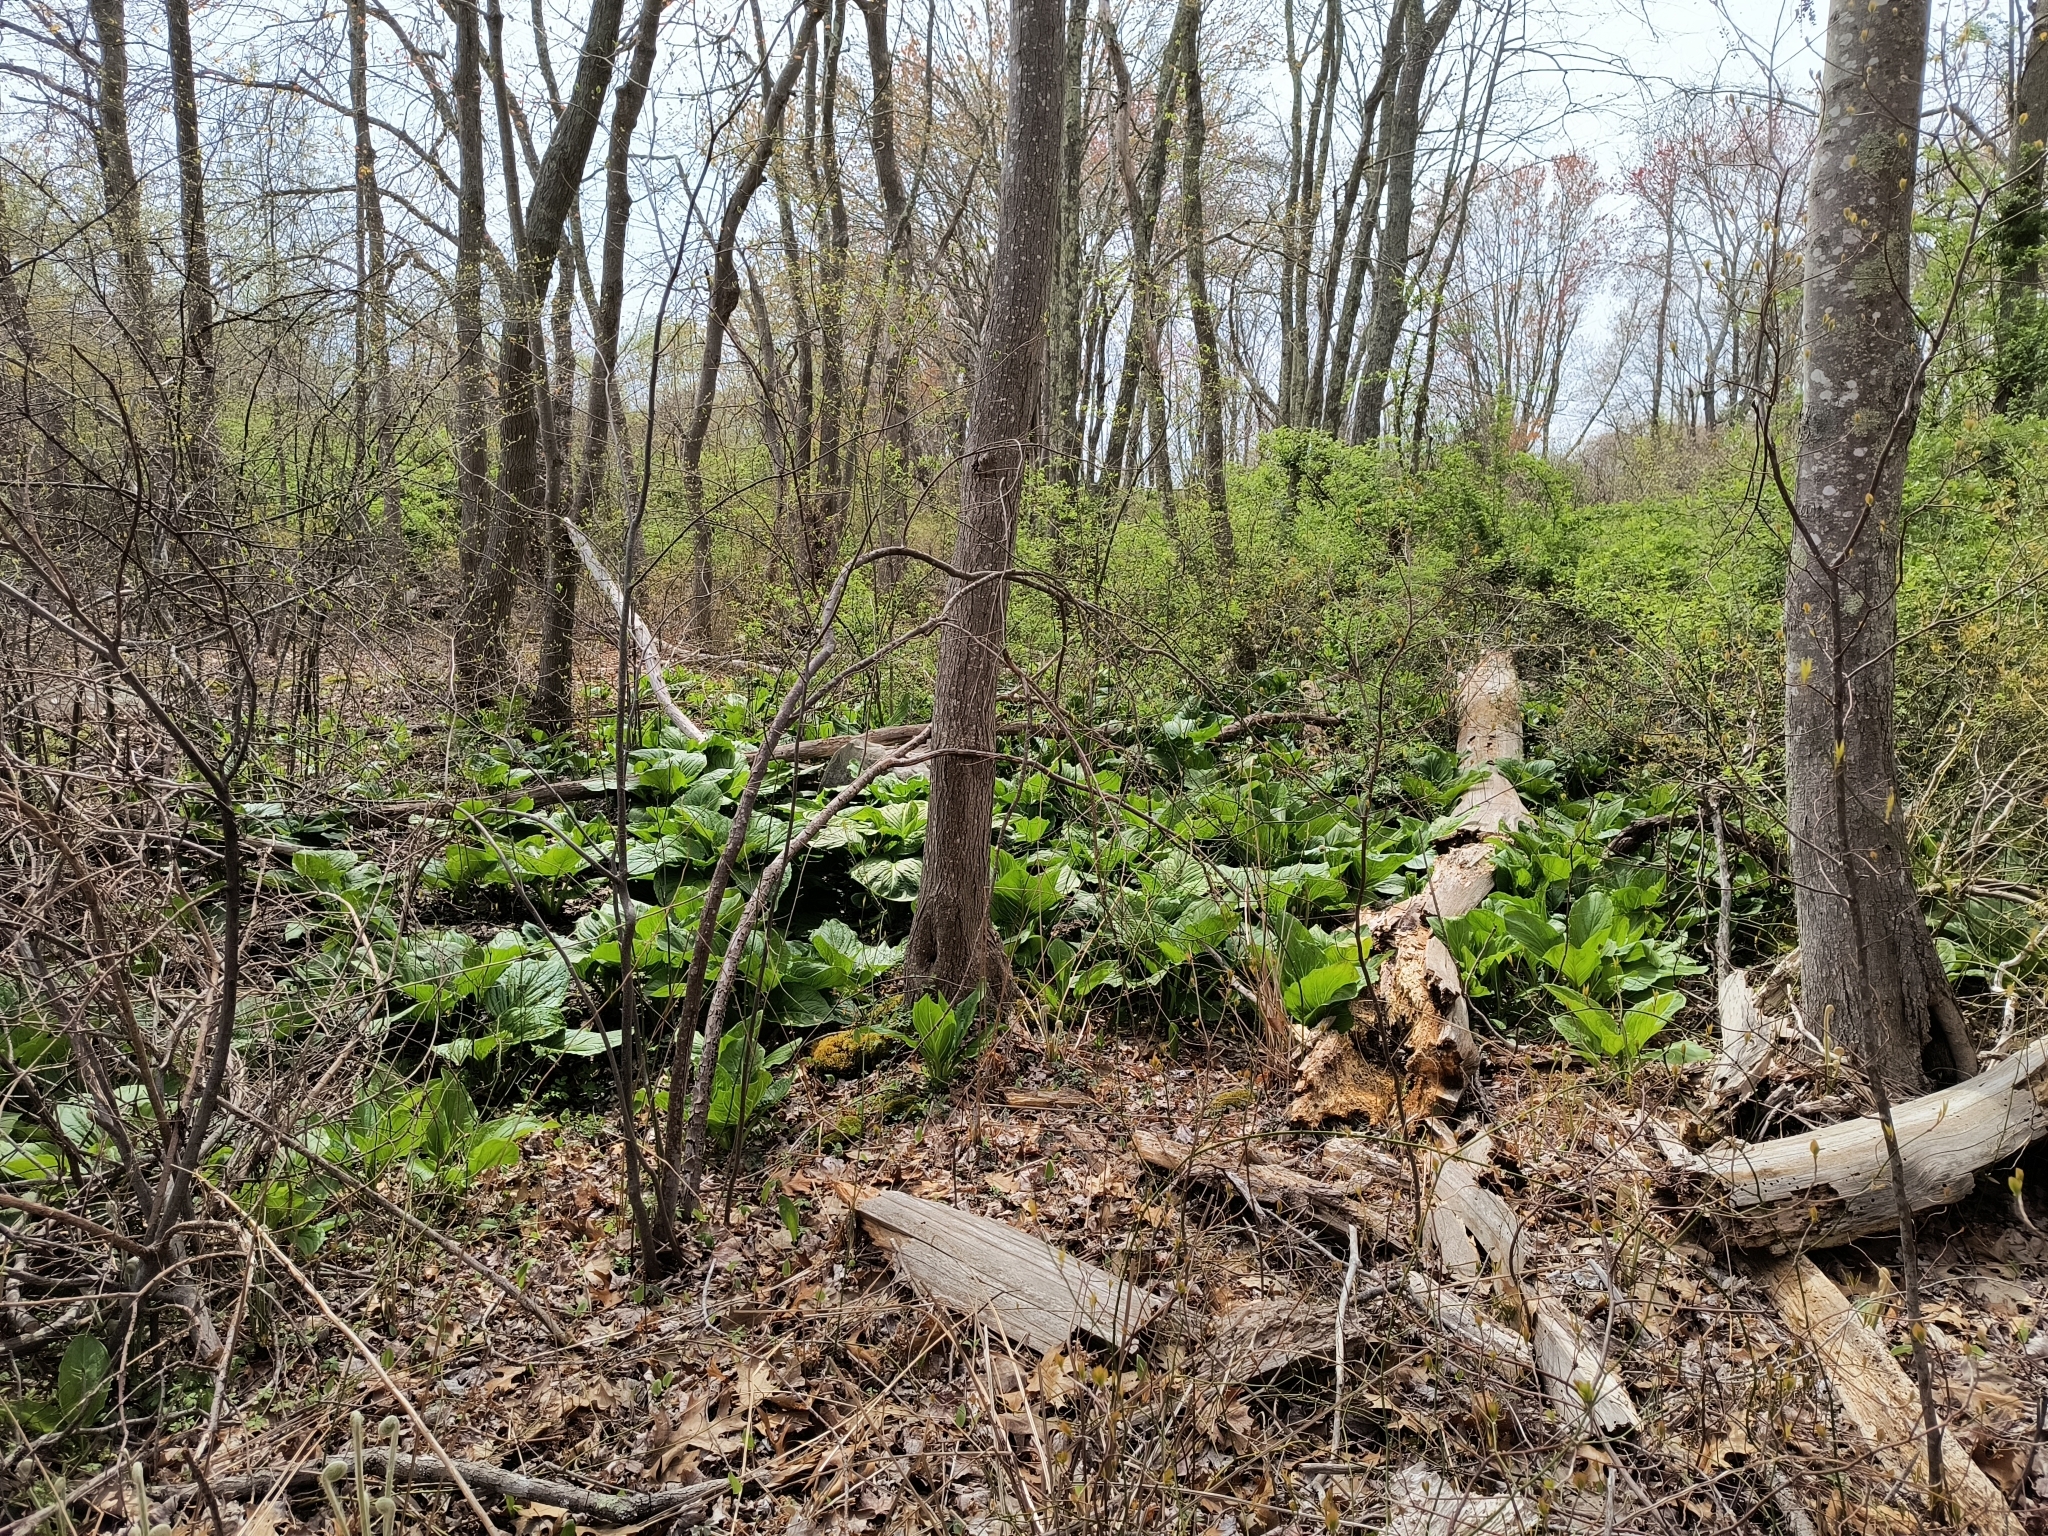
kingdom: Plantae
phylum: Tracheophyta
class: Liliopsida
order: Alismatales
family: Araceae
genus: Symplocarpus
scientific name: Symplocarpus foetidus
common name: Eastern skunk cabbage
